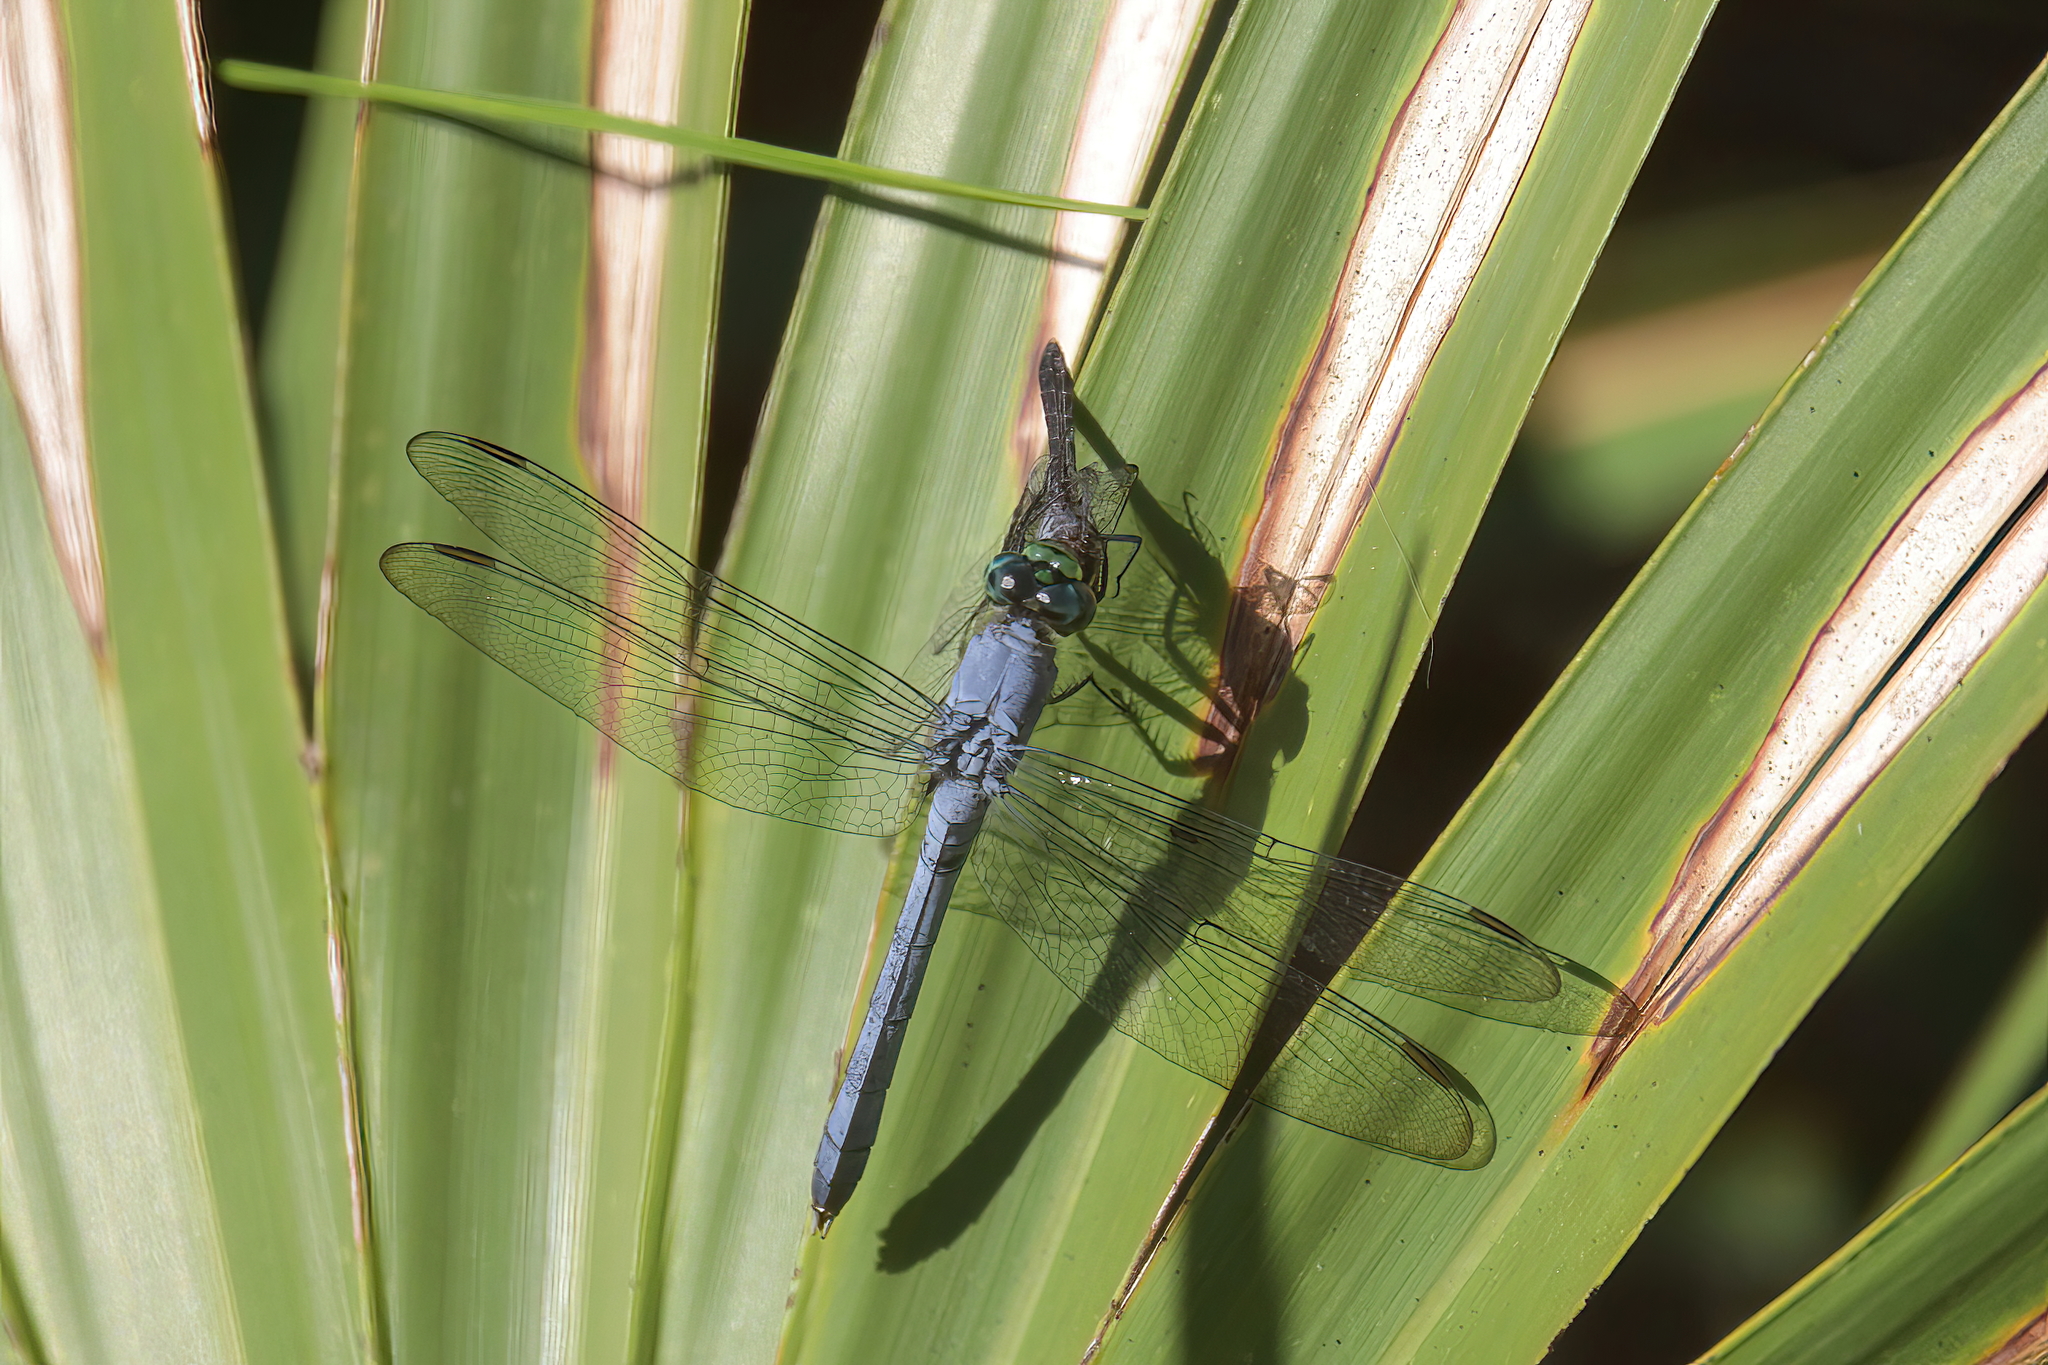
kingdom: Animalia
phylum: Arthropoda
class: Insecta
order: Odonata
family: Libellulidae
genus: Erythemis
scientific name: Erythemis simplicicollis
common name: Eastern pondhawk
